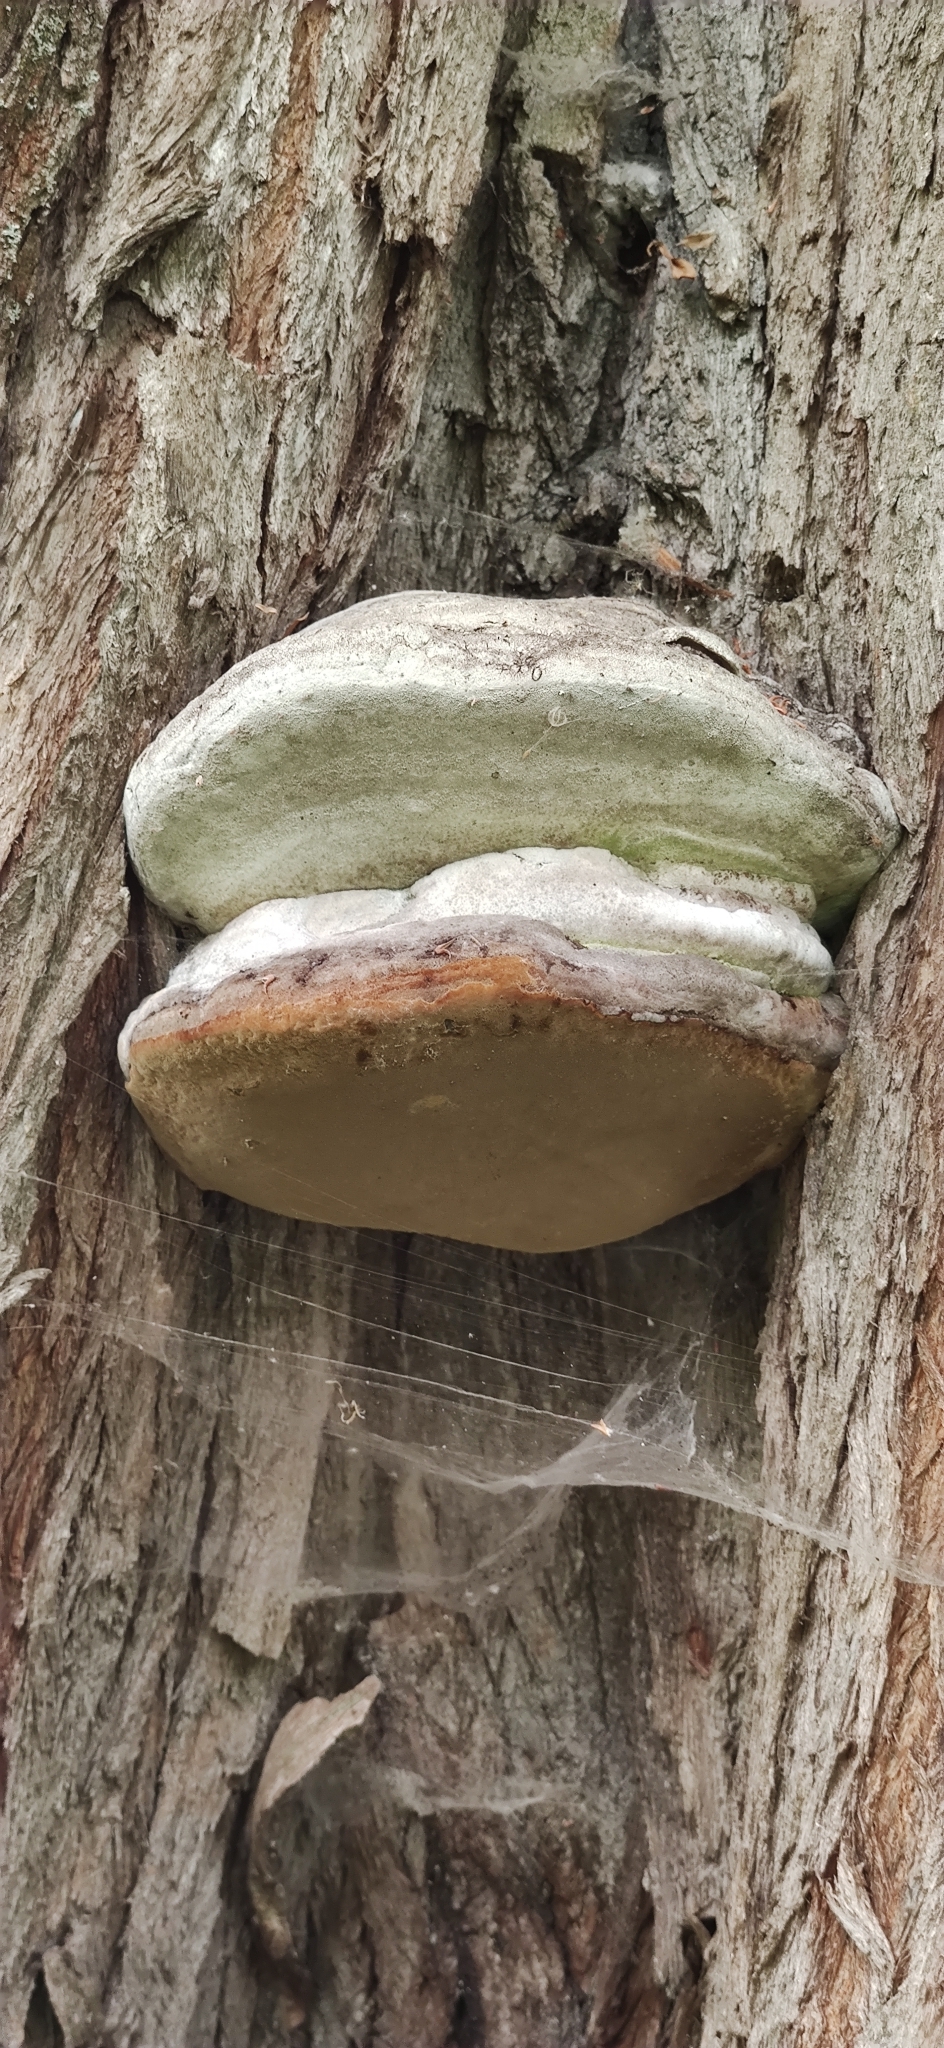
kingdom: Fungi
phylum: Basidiomycota
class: Agaricomycetes
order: Polyporales
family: Polyporaceae
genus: Fomes
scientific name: Fomes fomentarius
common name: Hoof fungus
